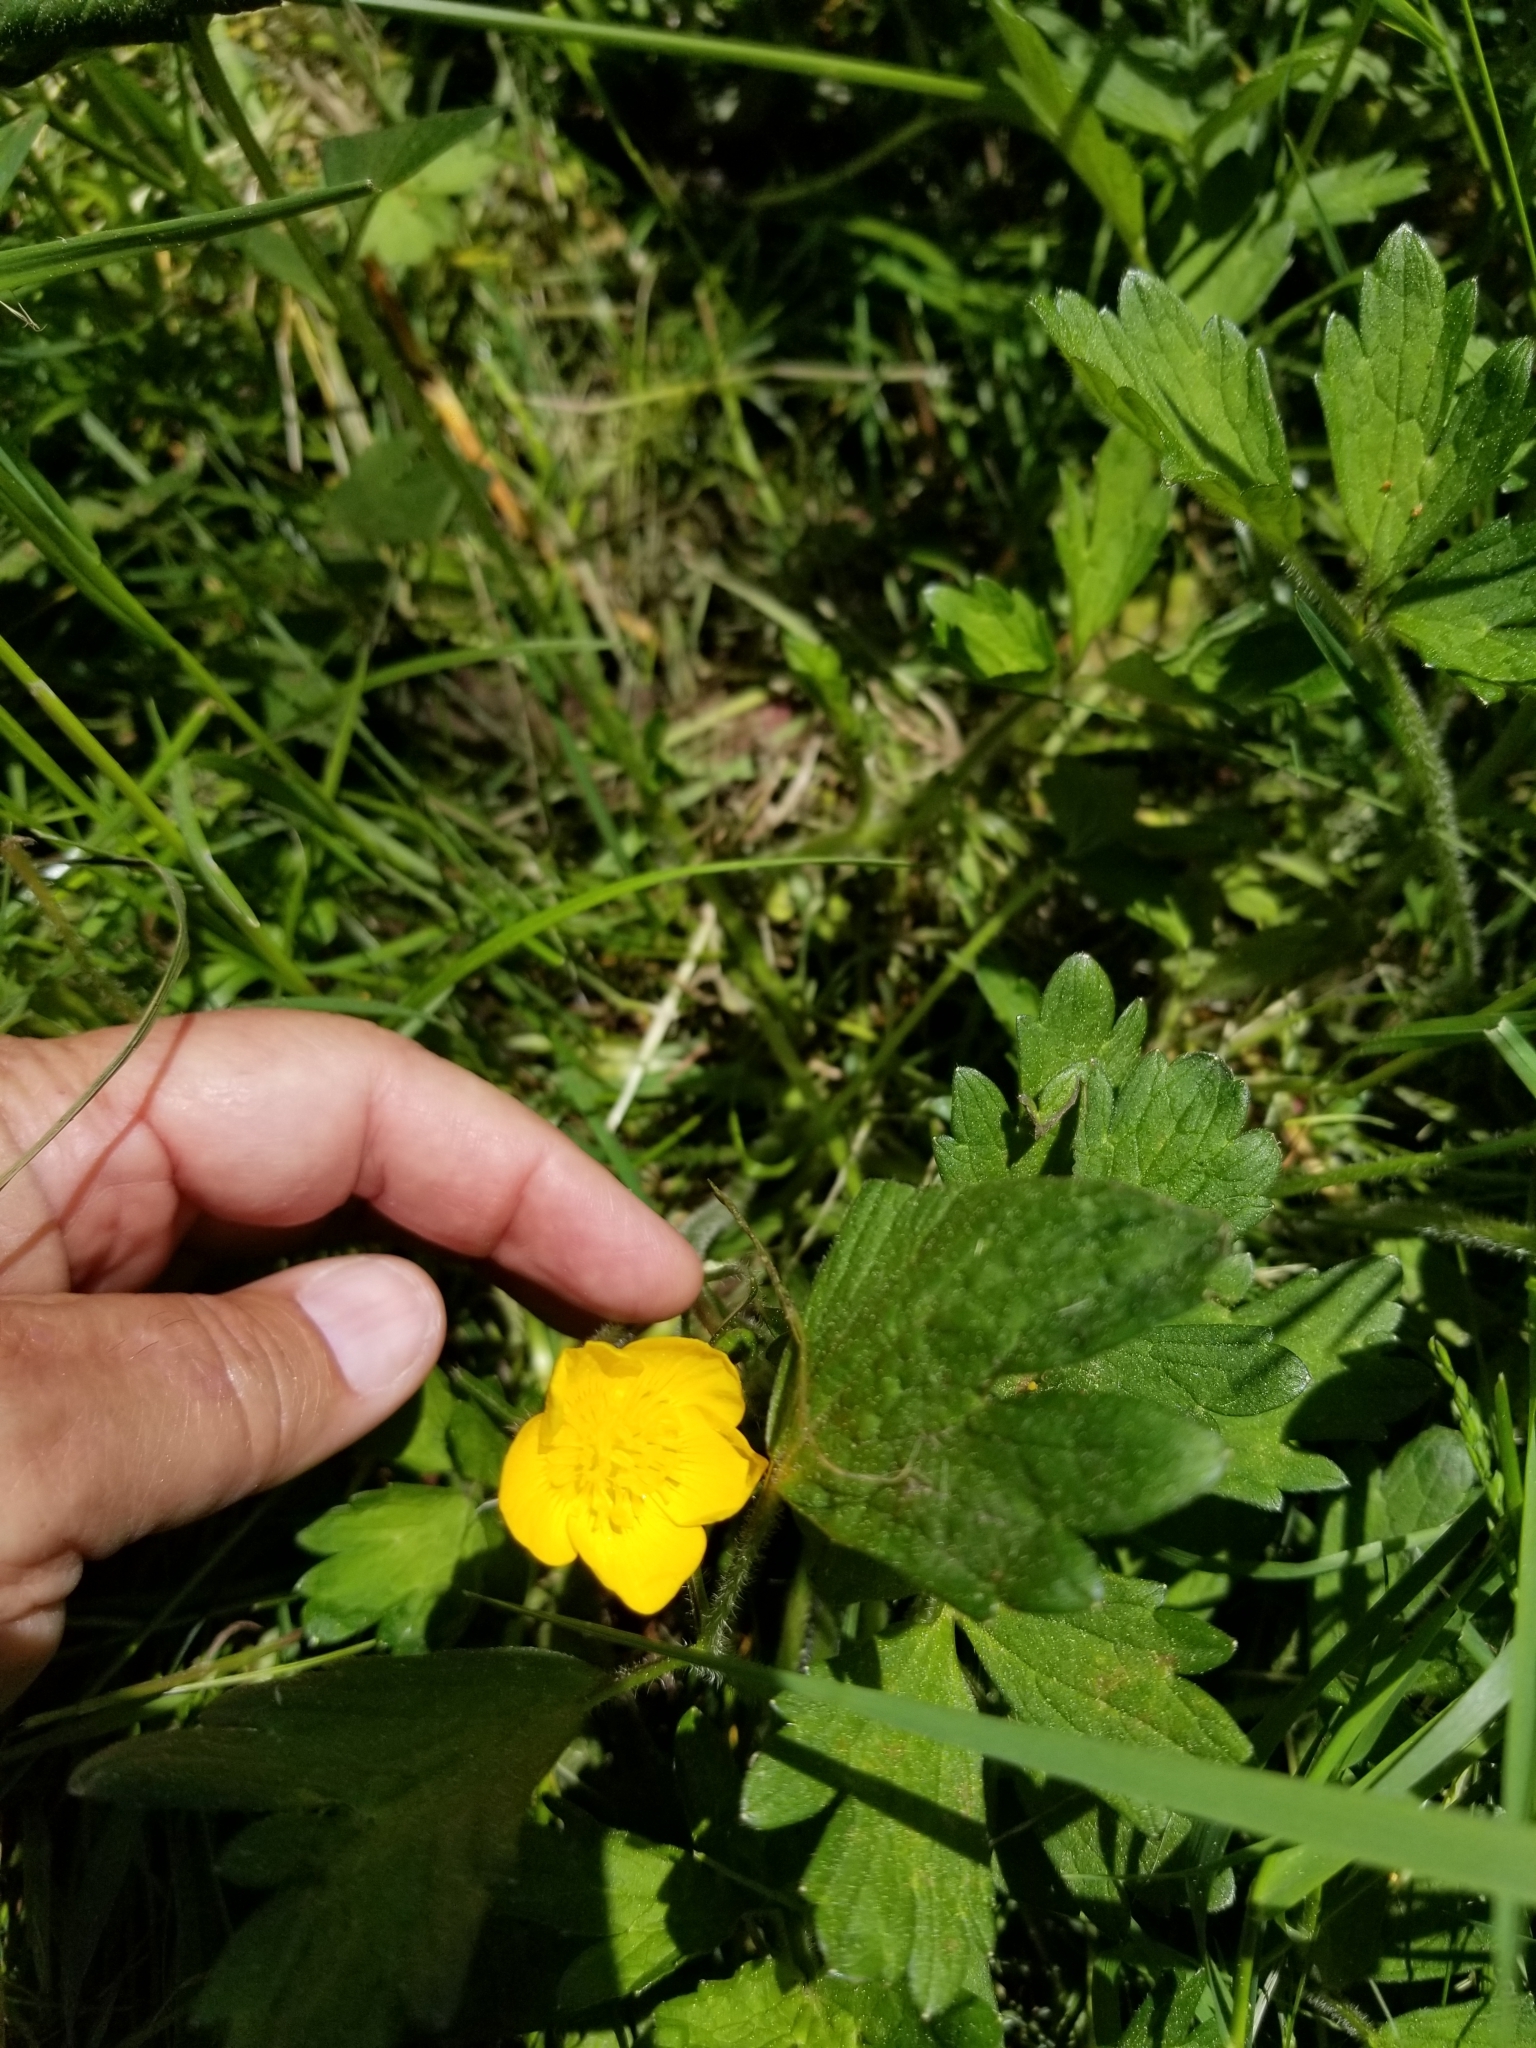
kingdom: Plantae
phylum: Tracheophyta
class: Magnoliopsida
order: Ranunculales
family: Ranunculaceae
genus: Ranunculus
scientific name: Ranunculus repens
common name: Creeping buttercup
